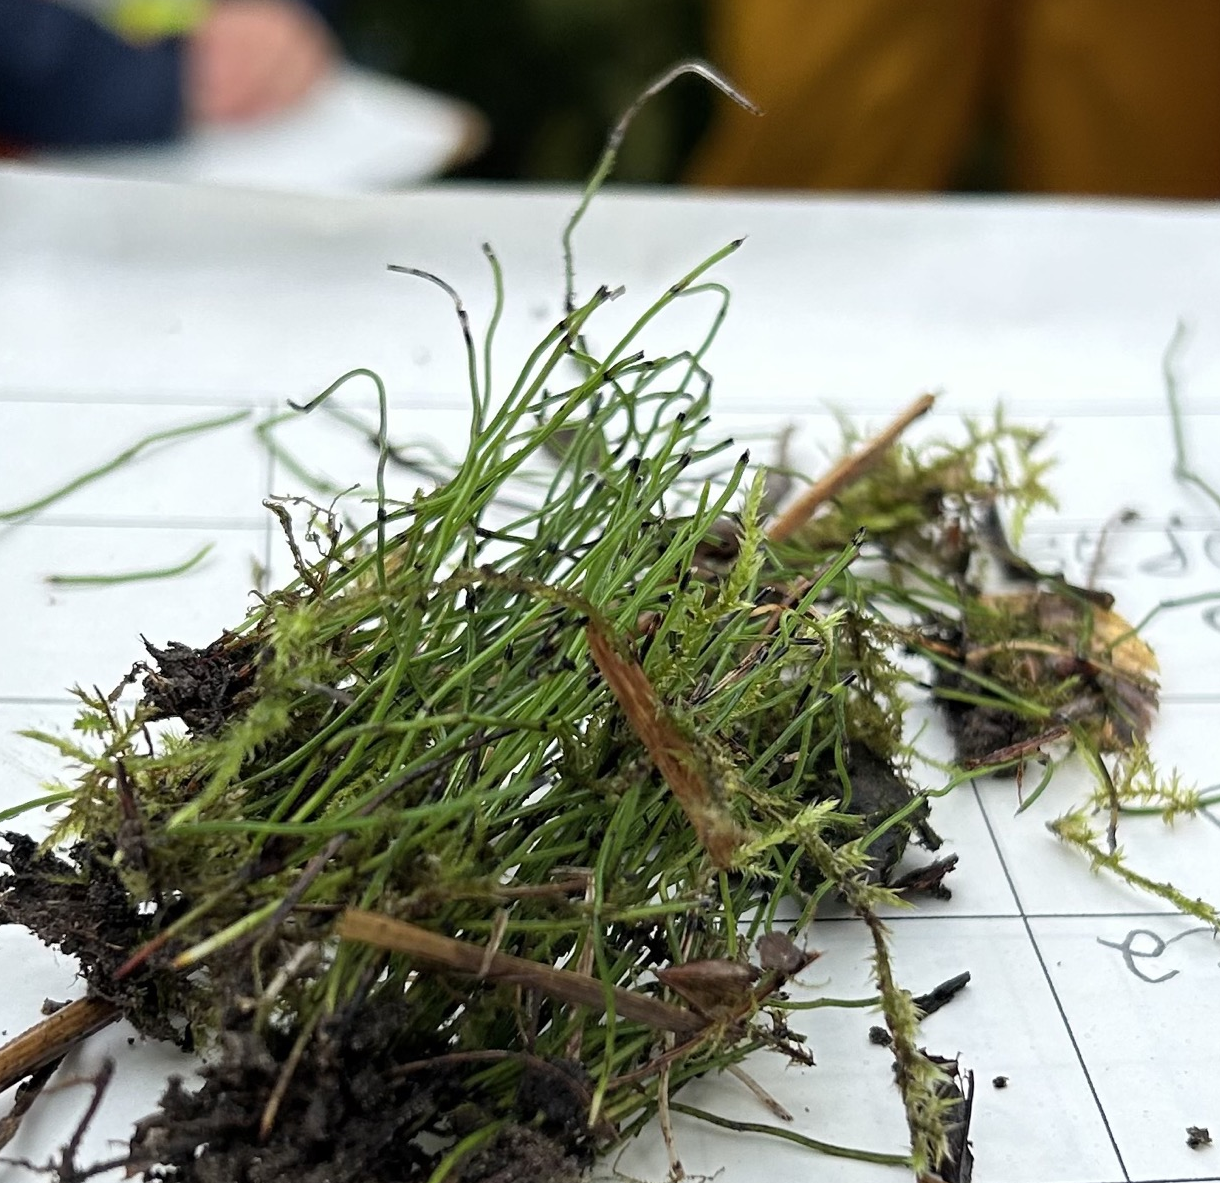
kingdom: Plantae
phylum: Tracheophyta
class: Polypodiopsida
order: Equisetales
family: Equisetaceae
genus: Equisetum
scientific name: Equisetum scirpoides
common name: Delicate horsetail
